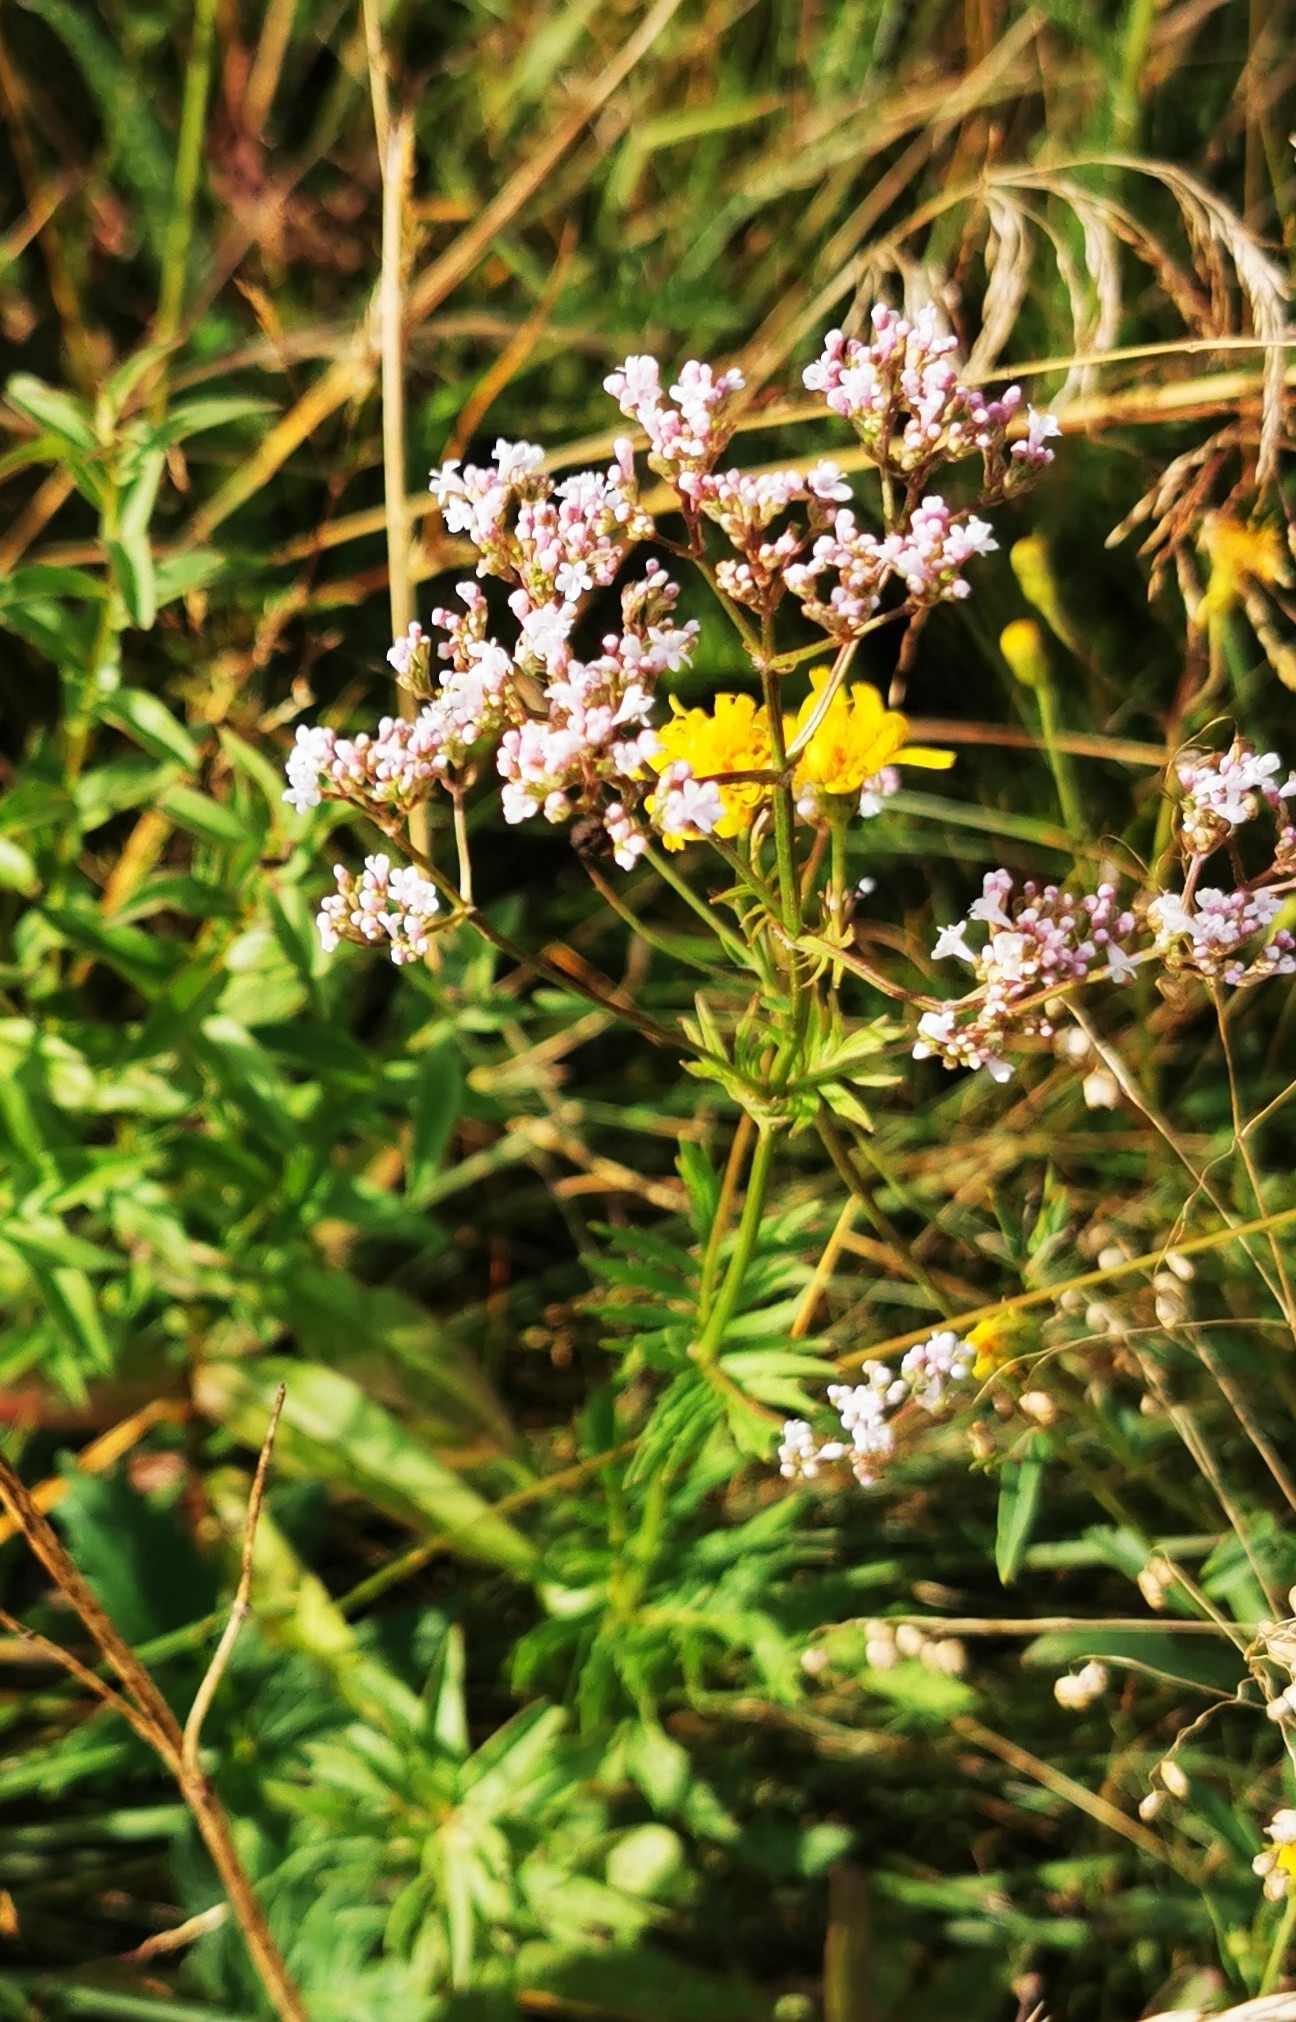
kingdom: Plantae
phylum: Tracheophyta
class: Magnoliopsida
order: Dipsacales
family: Caprifoliaceae
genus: Valeriana
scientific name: Valeriana officinalis
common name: Common valerian
